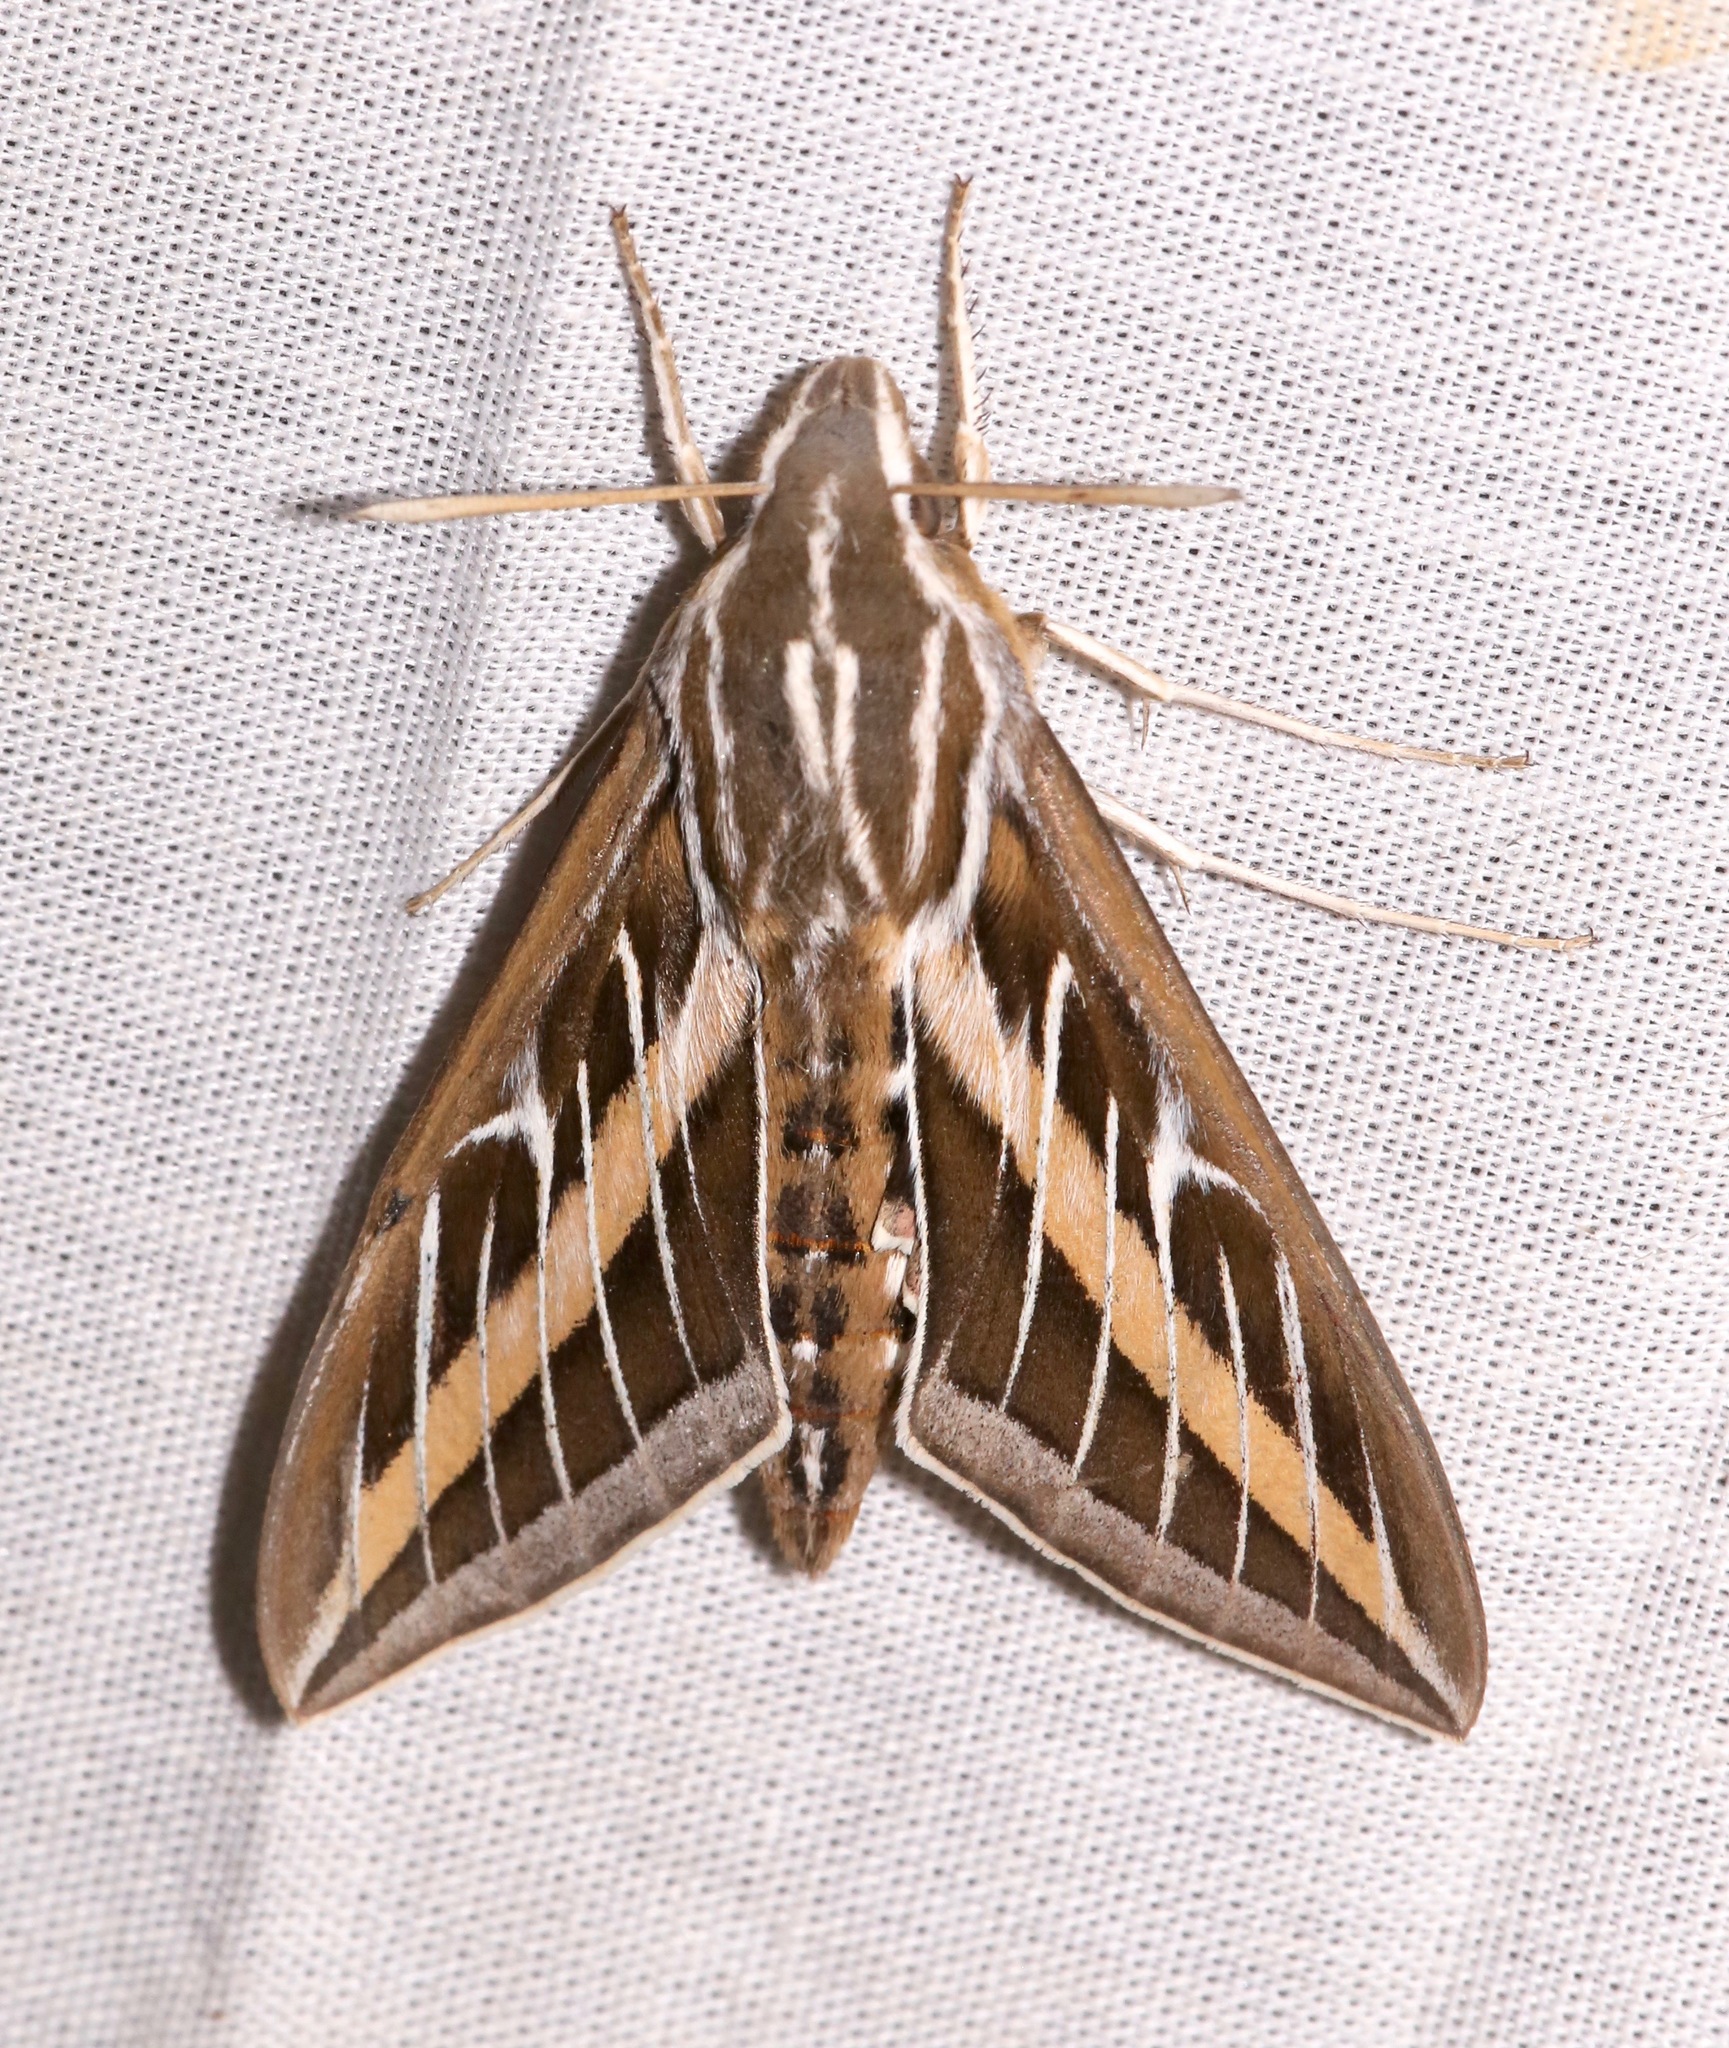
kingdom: Animalia
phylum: Arthropoda
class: Insecta
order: Lepidoptera
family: Sphingidae
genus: Hyles
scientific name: Hyles lineata
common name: White-lined sphinx
